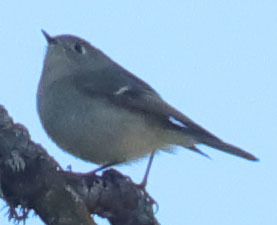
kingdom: Animalia
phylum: Chordata
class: Aves
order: Passeriformes
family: Regulidae
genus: Regulus
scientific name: Regulus calendula
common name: Ruby-crowned kinglet
